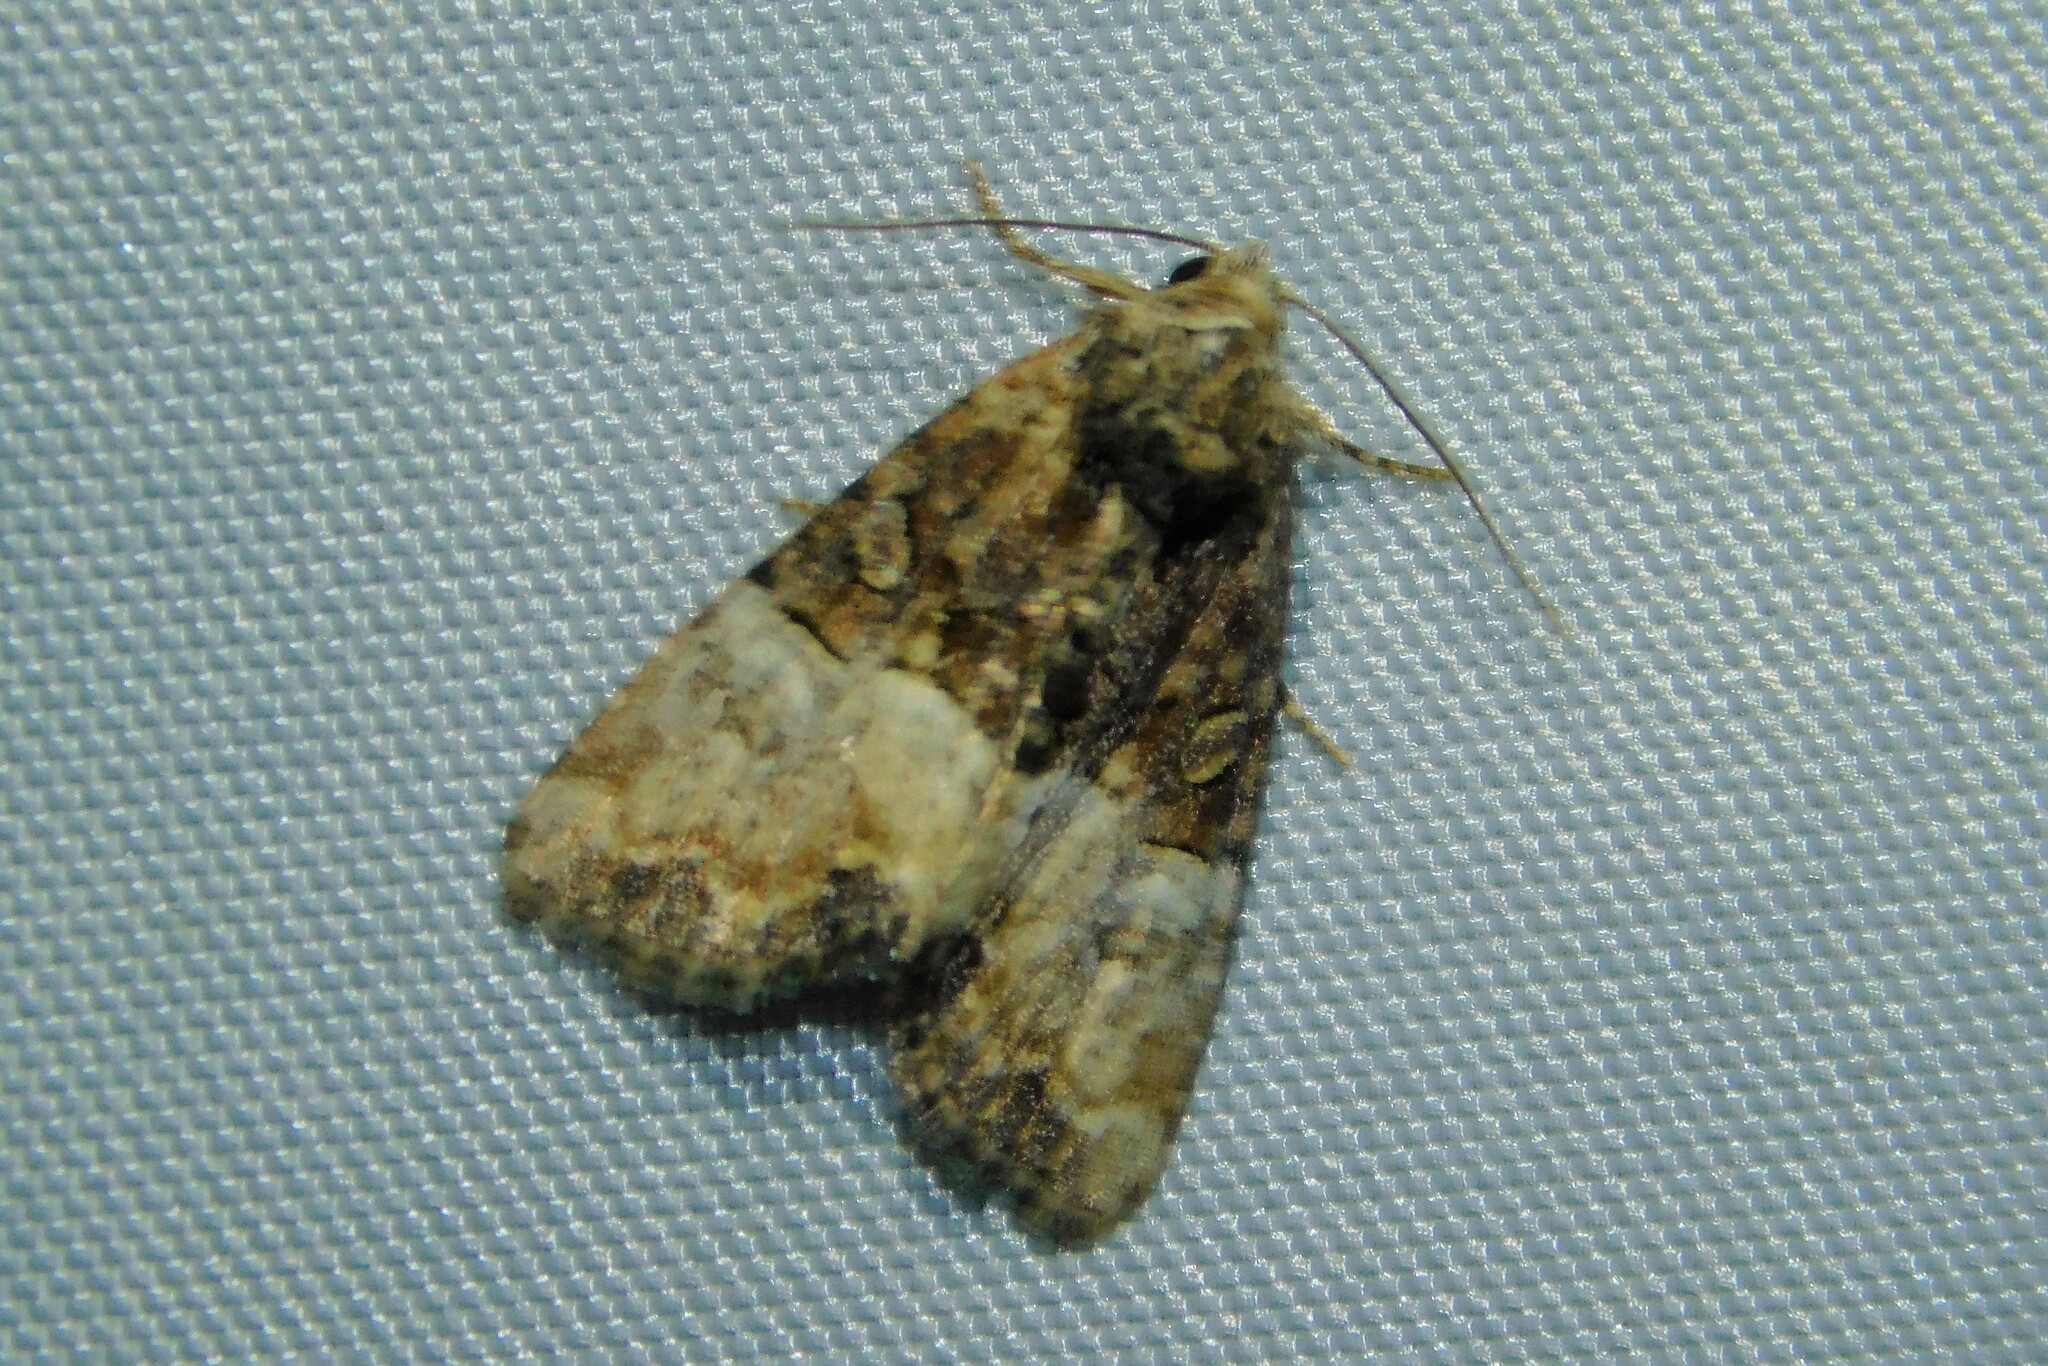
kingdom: Animalia
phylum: Arthropoda
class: Insecta
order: Lepidoptera
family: Noctuidae
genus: Mesoligia
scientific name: Mesoligia furuncula
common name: Cloaked minor
